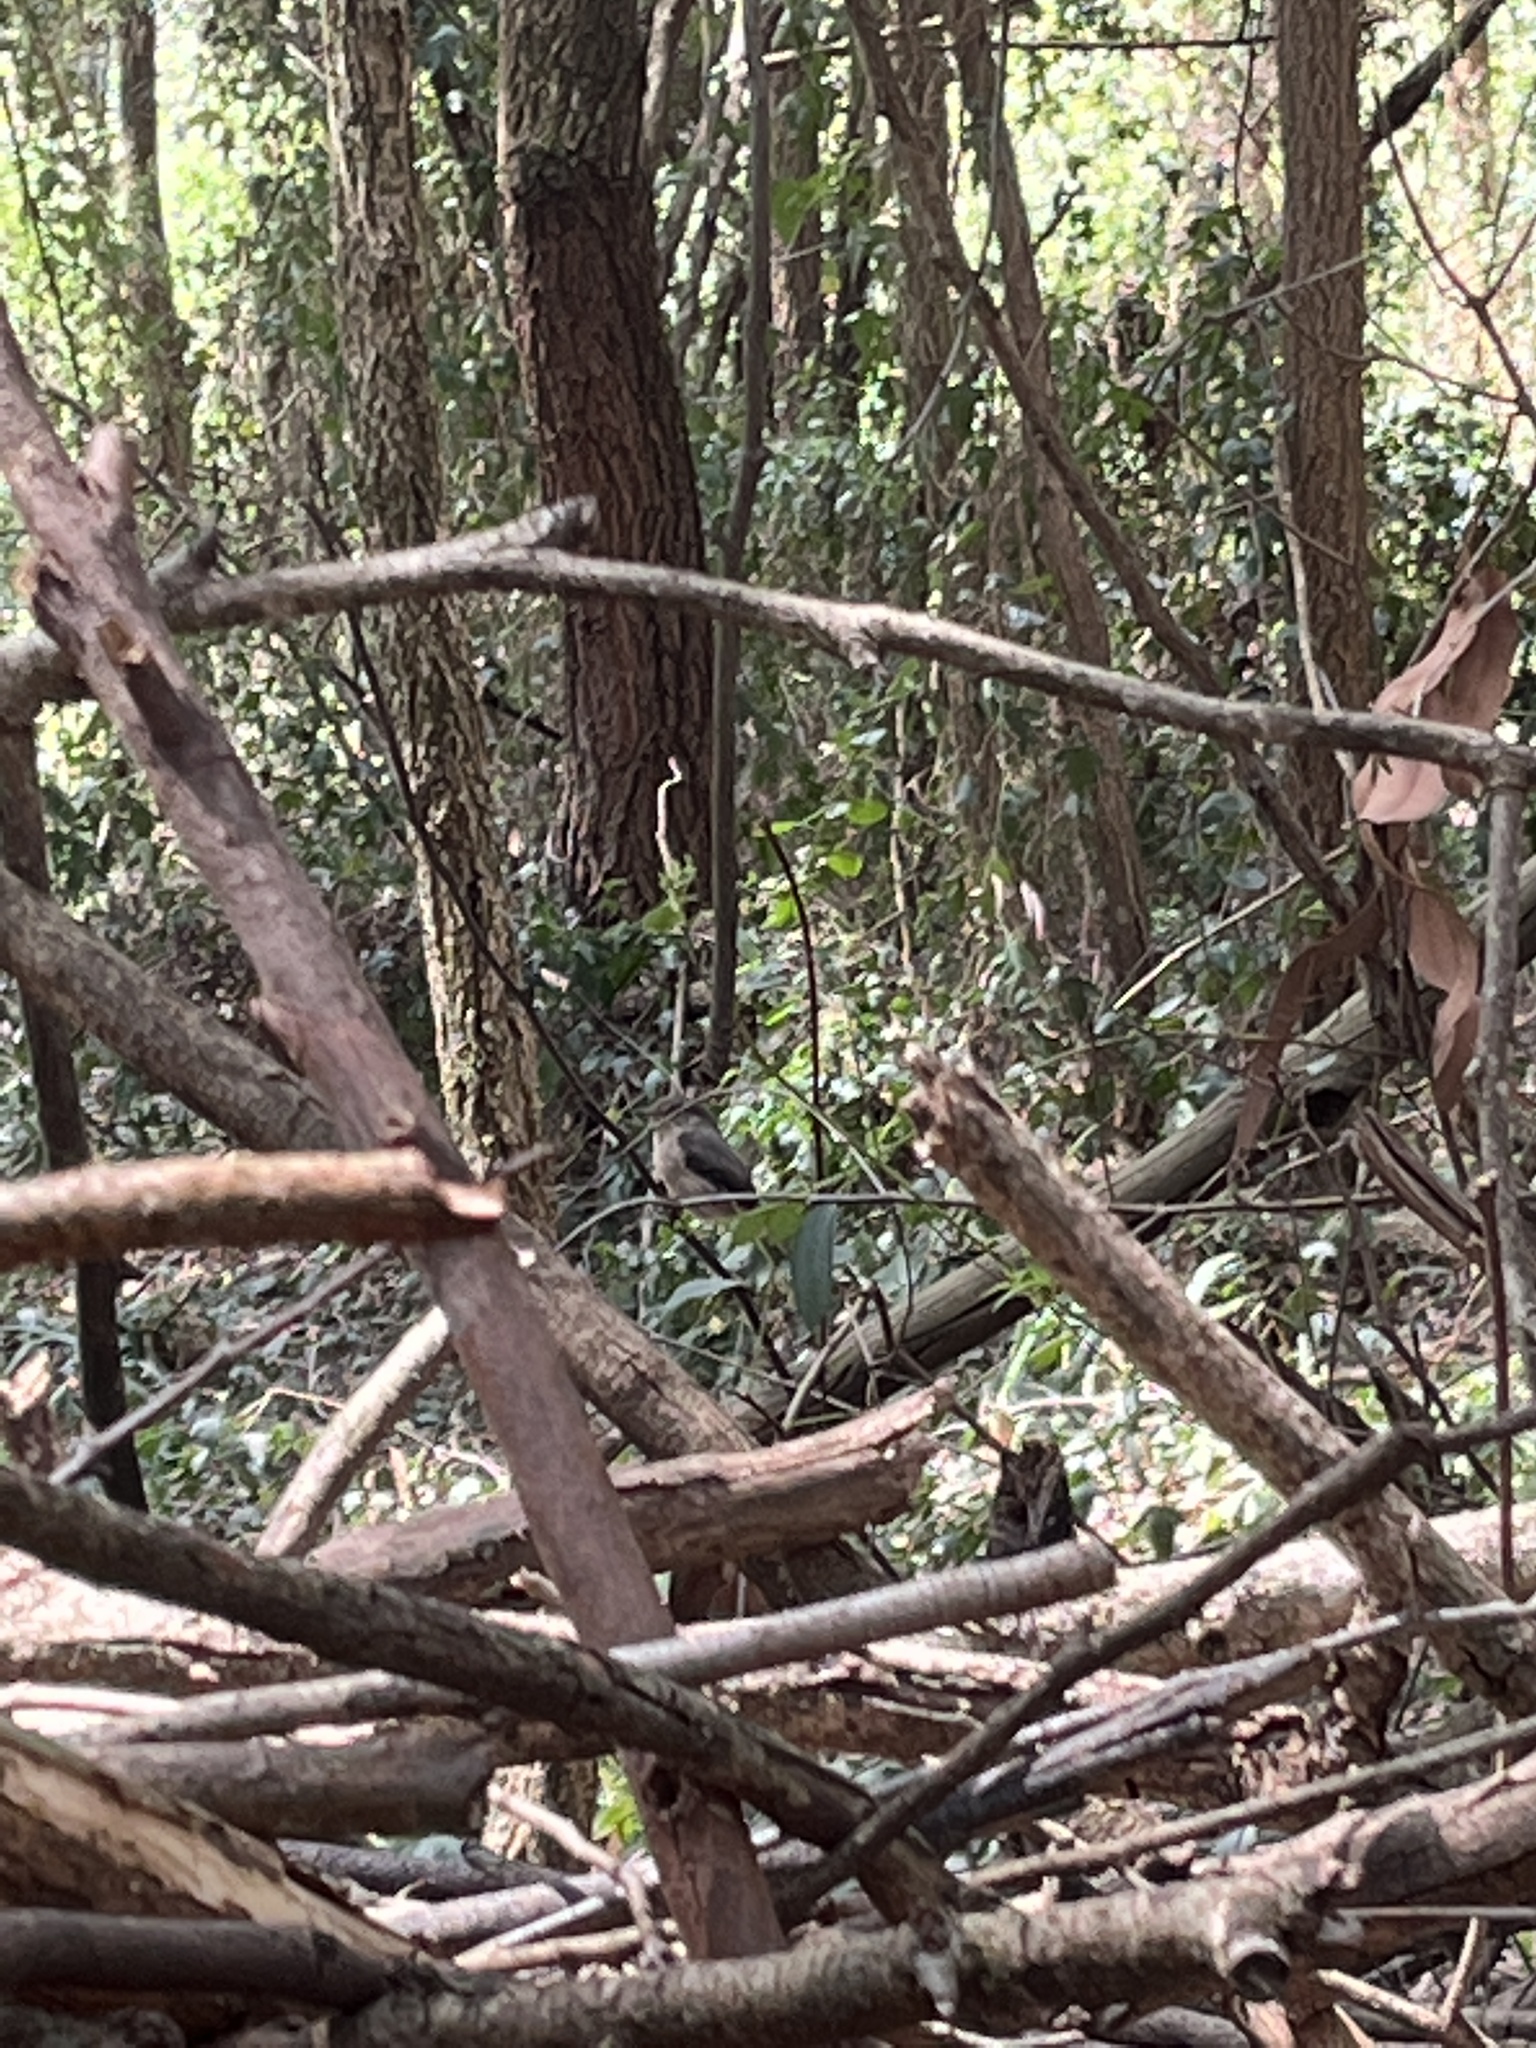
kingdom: Animalia
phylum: Chordata
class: Aves
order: Passeriformes
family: Muscicapidae
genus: Muscicapa
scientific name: Muscicapa adusta
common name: African dusky flycatcher
